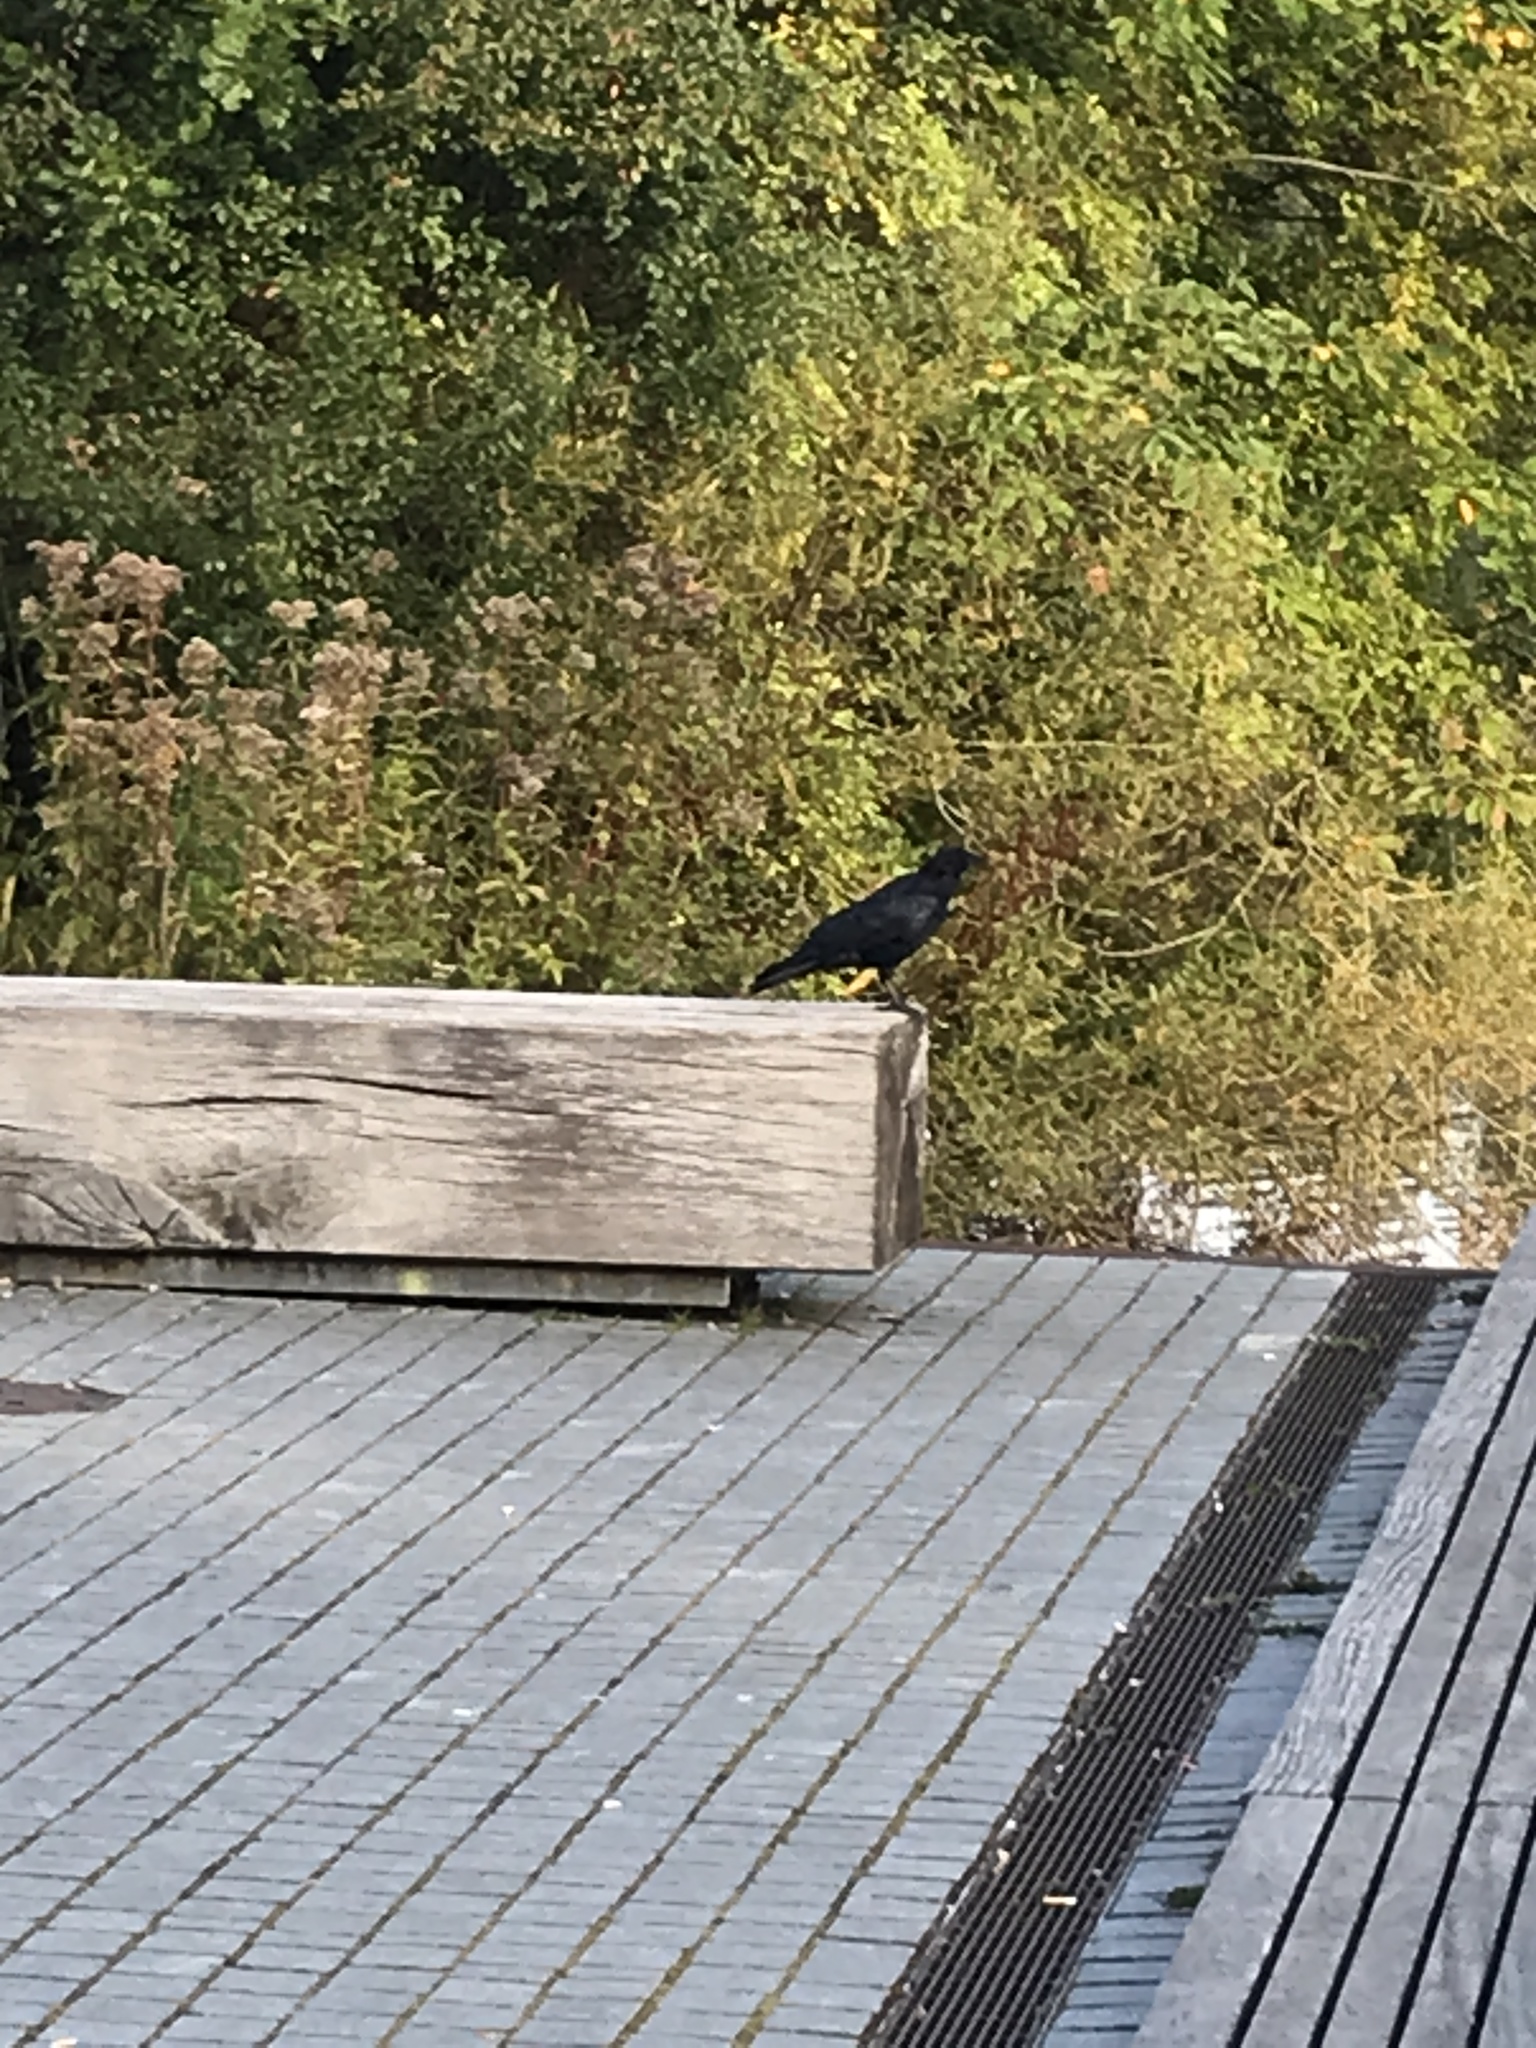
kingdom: Animalia
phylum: Chordata
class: Aves
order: Passeriformes
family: Corvidae
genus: Corvus
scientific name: Corvus corone
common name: Carrion crow
